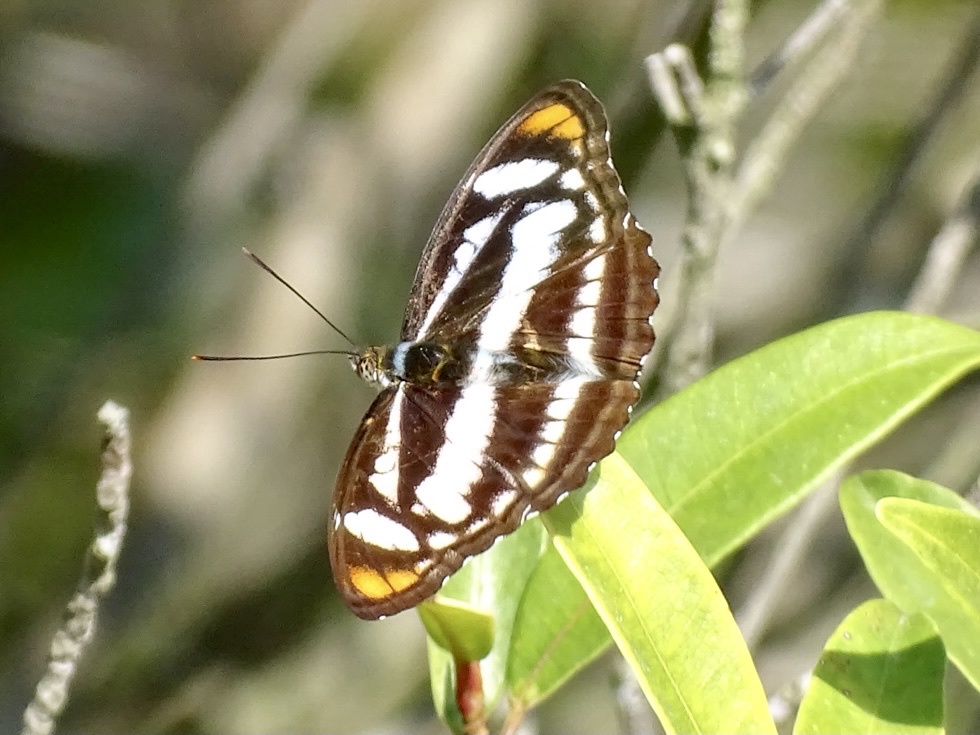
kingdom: Animalia
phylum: Arthropoda
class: Insecta
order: Lepidoptera
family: Nymphalidae
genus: Parathyma
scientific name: Parathyma nefte
